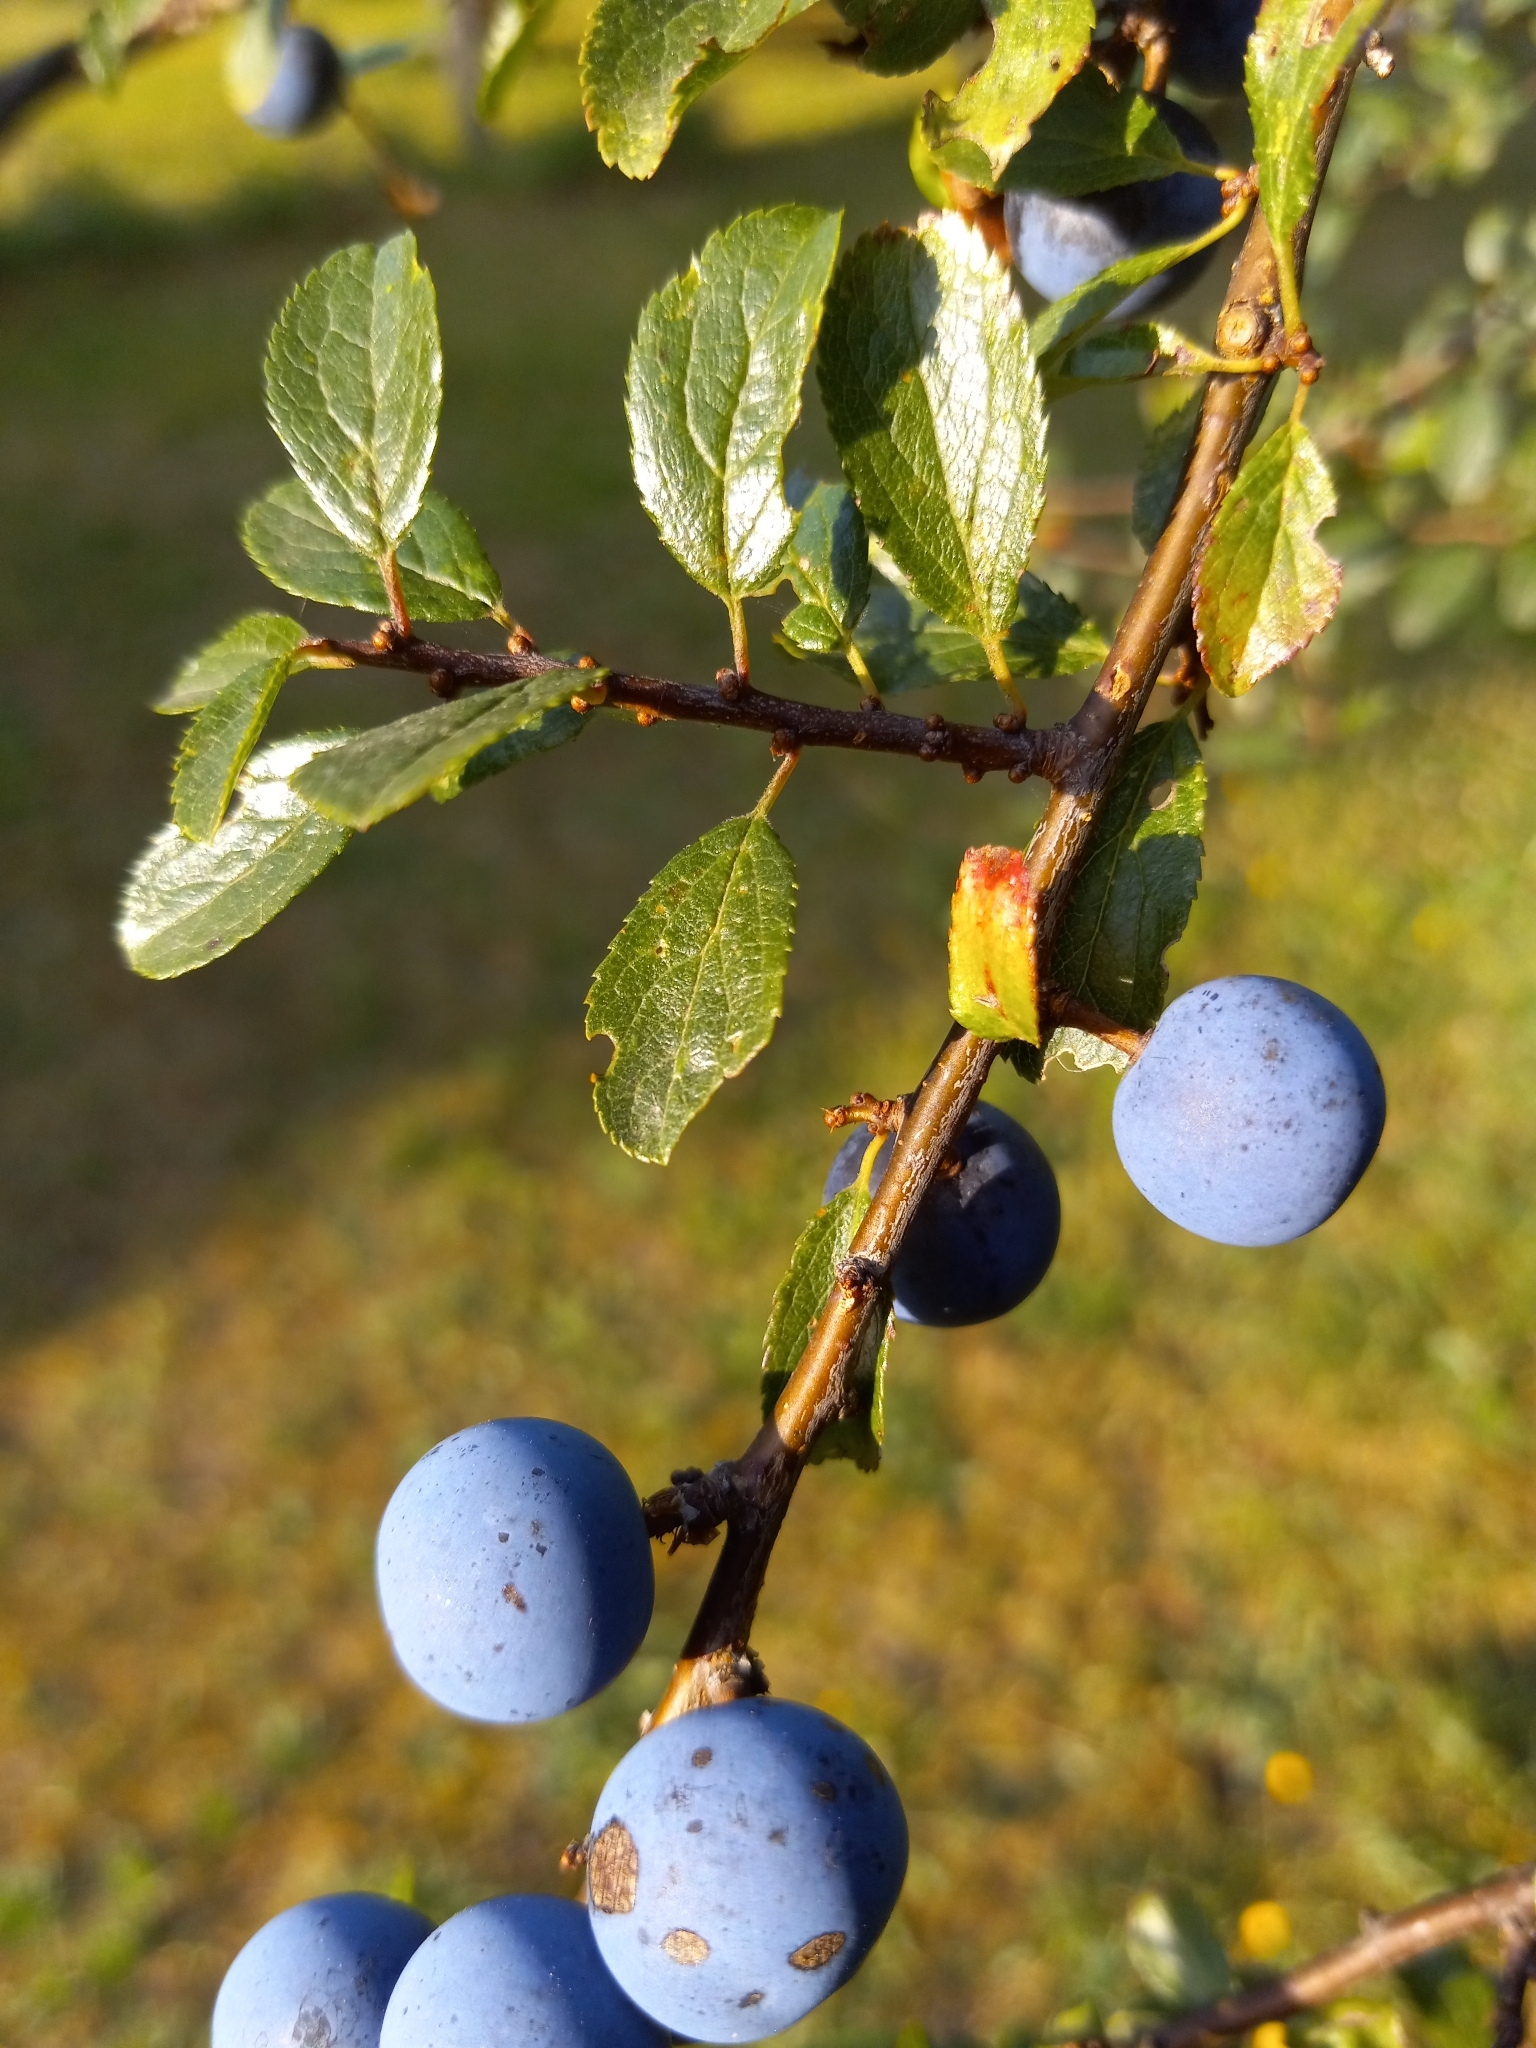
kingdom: Plantae
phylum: Tracheophyta
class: Magnoliopsida
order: Rosales
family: Rosaceae
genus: Prunus
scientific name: Prunus spinosa
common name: Blackthorn
